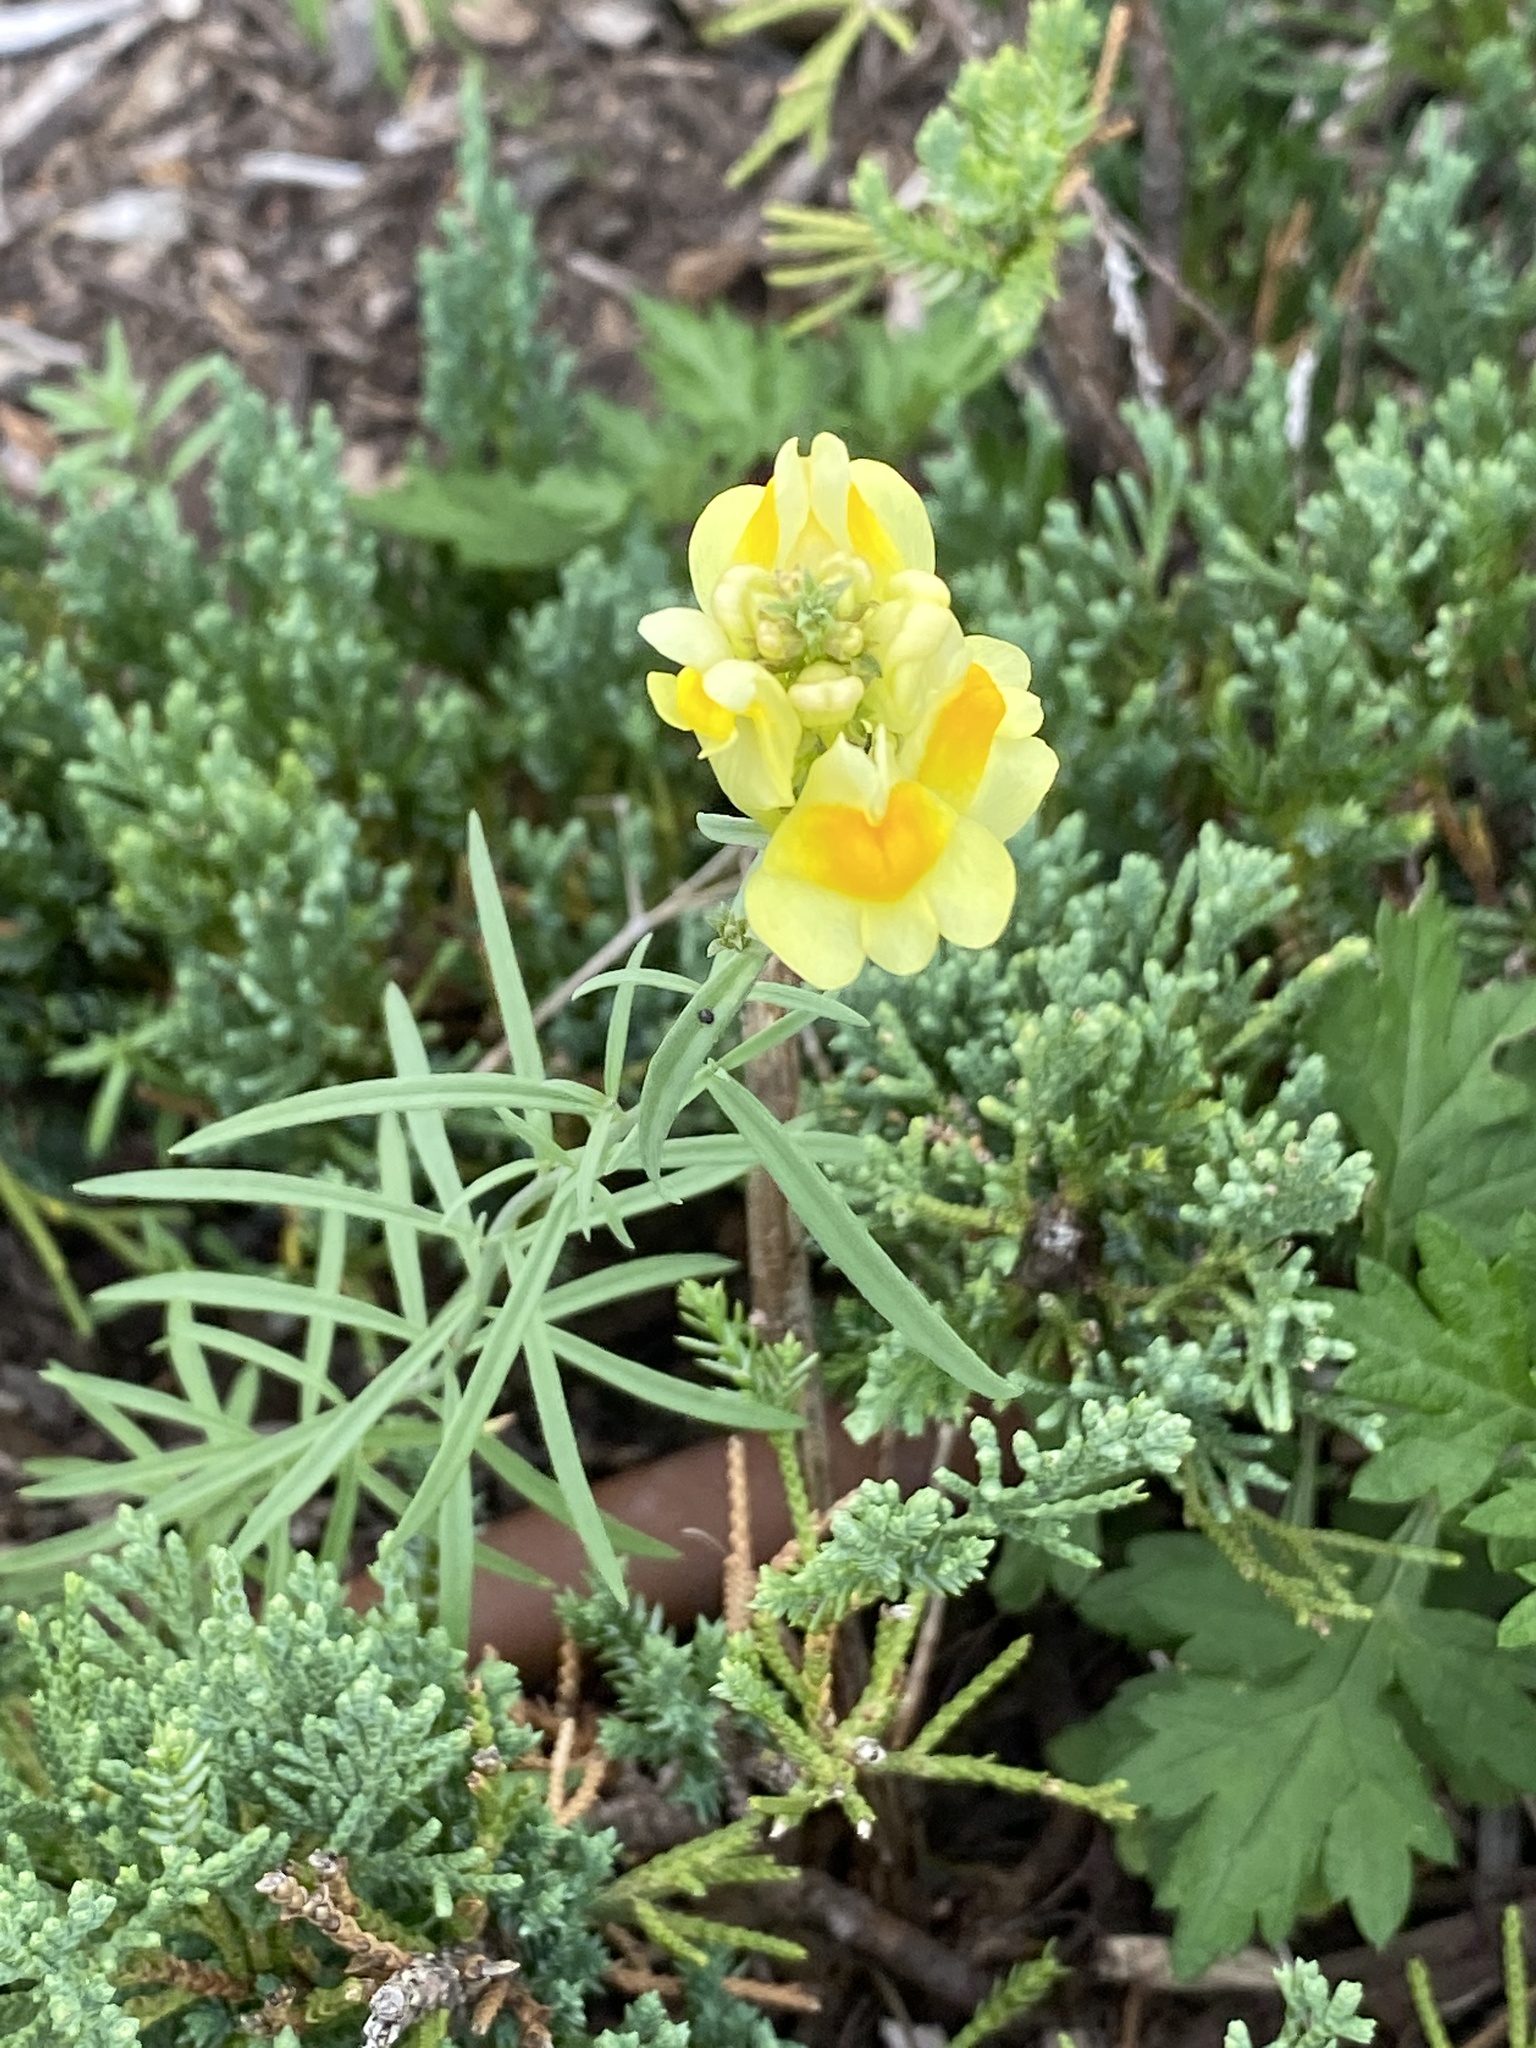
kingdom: Plantae
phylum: Tracheophyta
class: Magnoliopsida
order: Lamiales
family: Plantaginaceae
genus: Linaria
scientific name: Linaria vulgaris
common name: Butter and eggs
